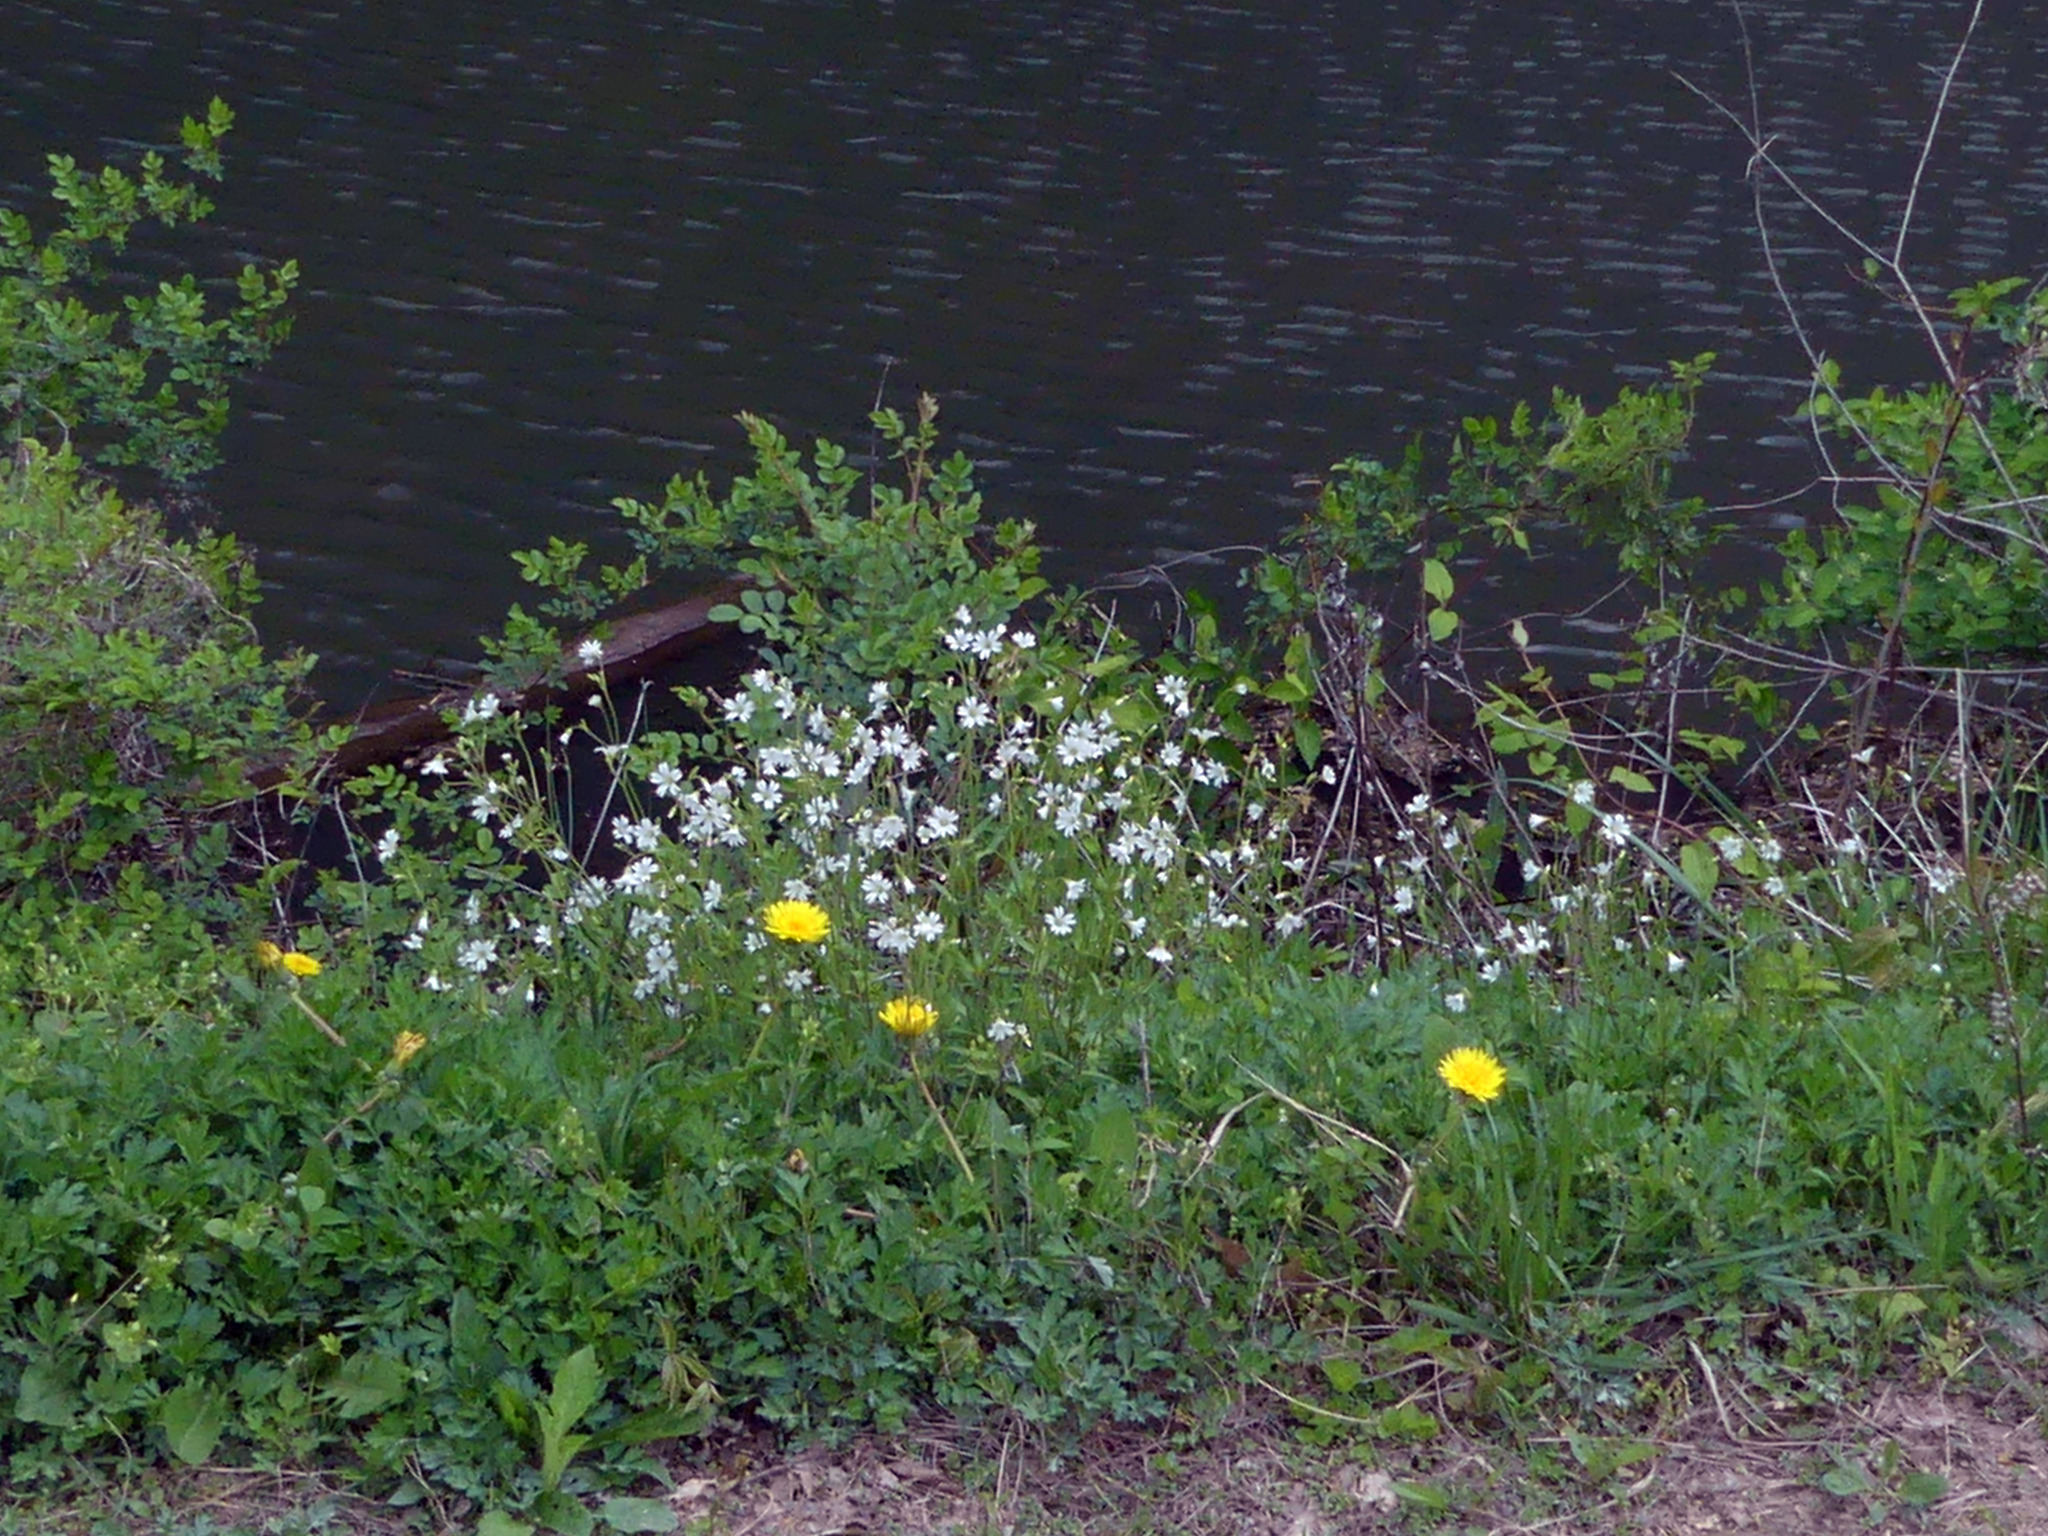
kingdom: Plantae
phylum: Tracheophyta
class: Magnoliopsida
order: Caryophyllales
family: Caryophyllaceae
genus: Cerastium
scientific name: Cerastium arvense
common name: Field mouse-ear
